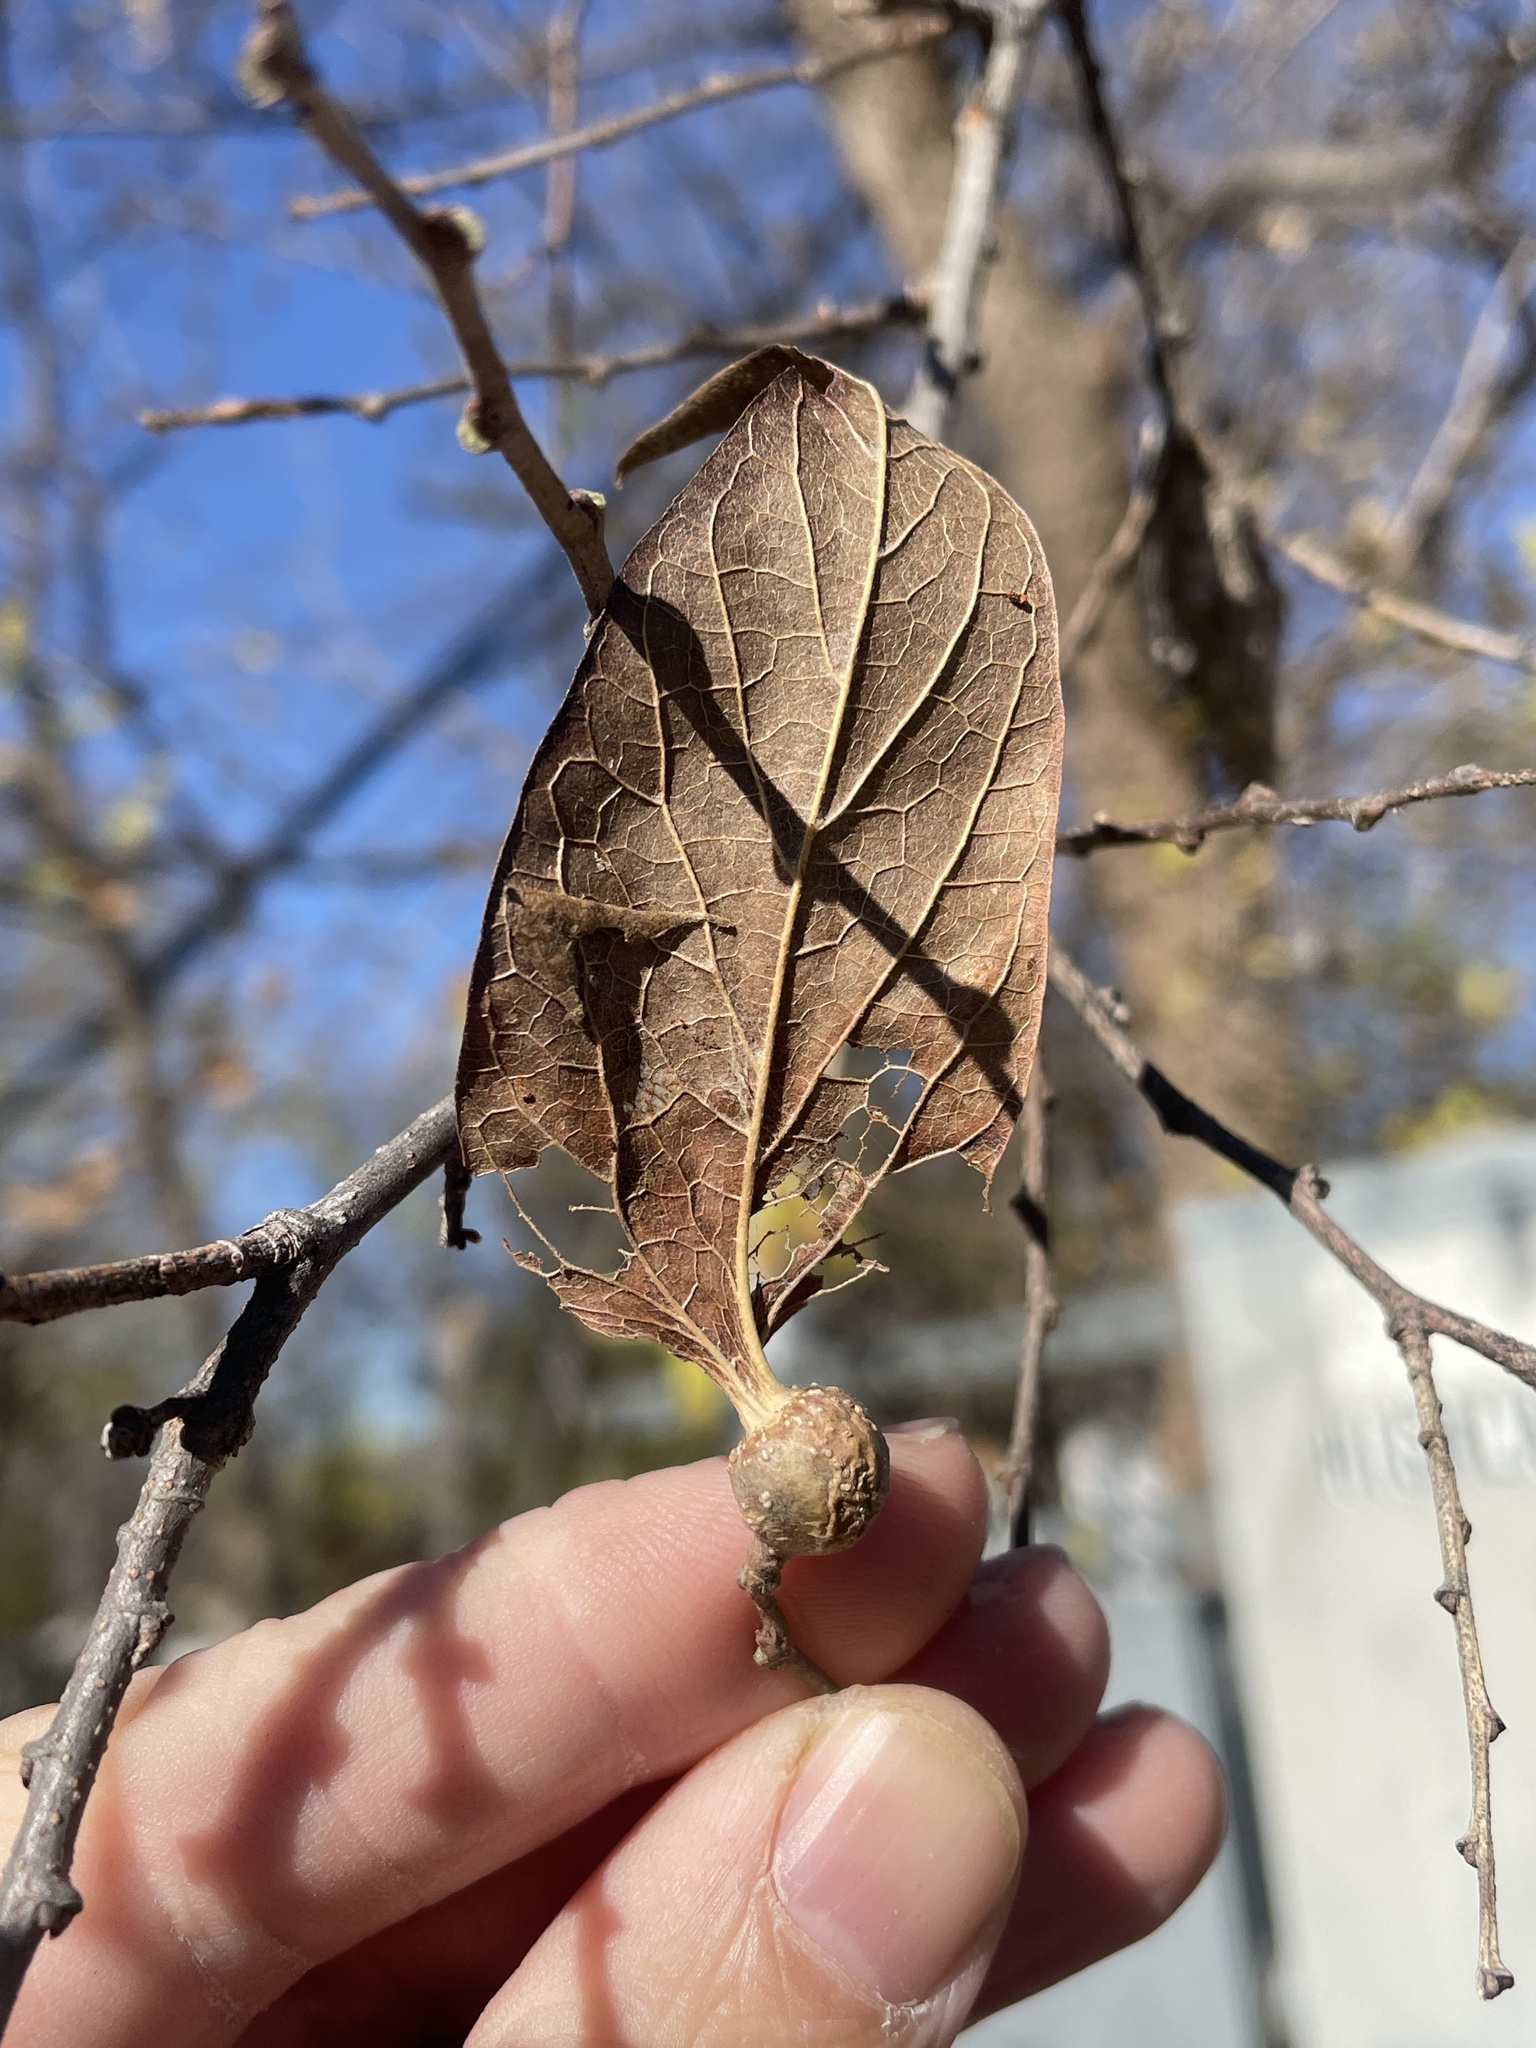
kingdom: Animalia
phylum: Arthropoda
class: Insecta
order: Hemiptera
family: Aphalaridae
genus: Pachypsylla
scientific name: Pachypsylla venusta
